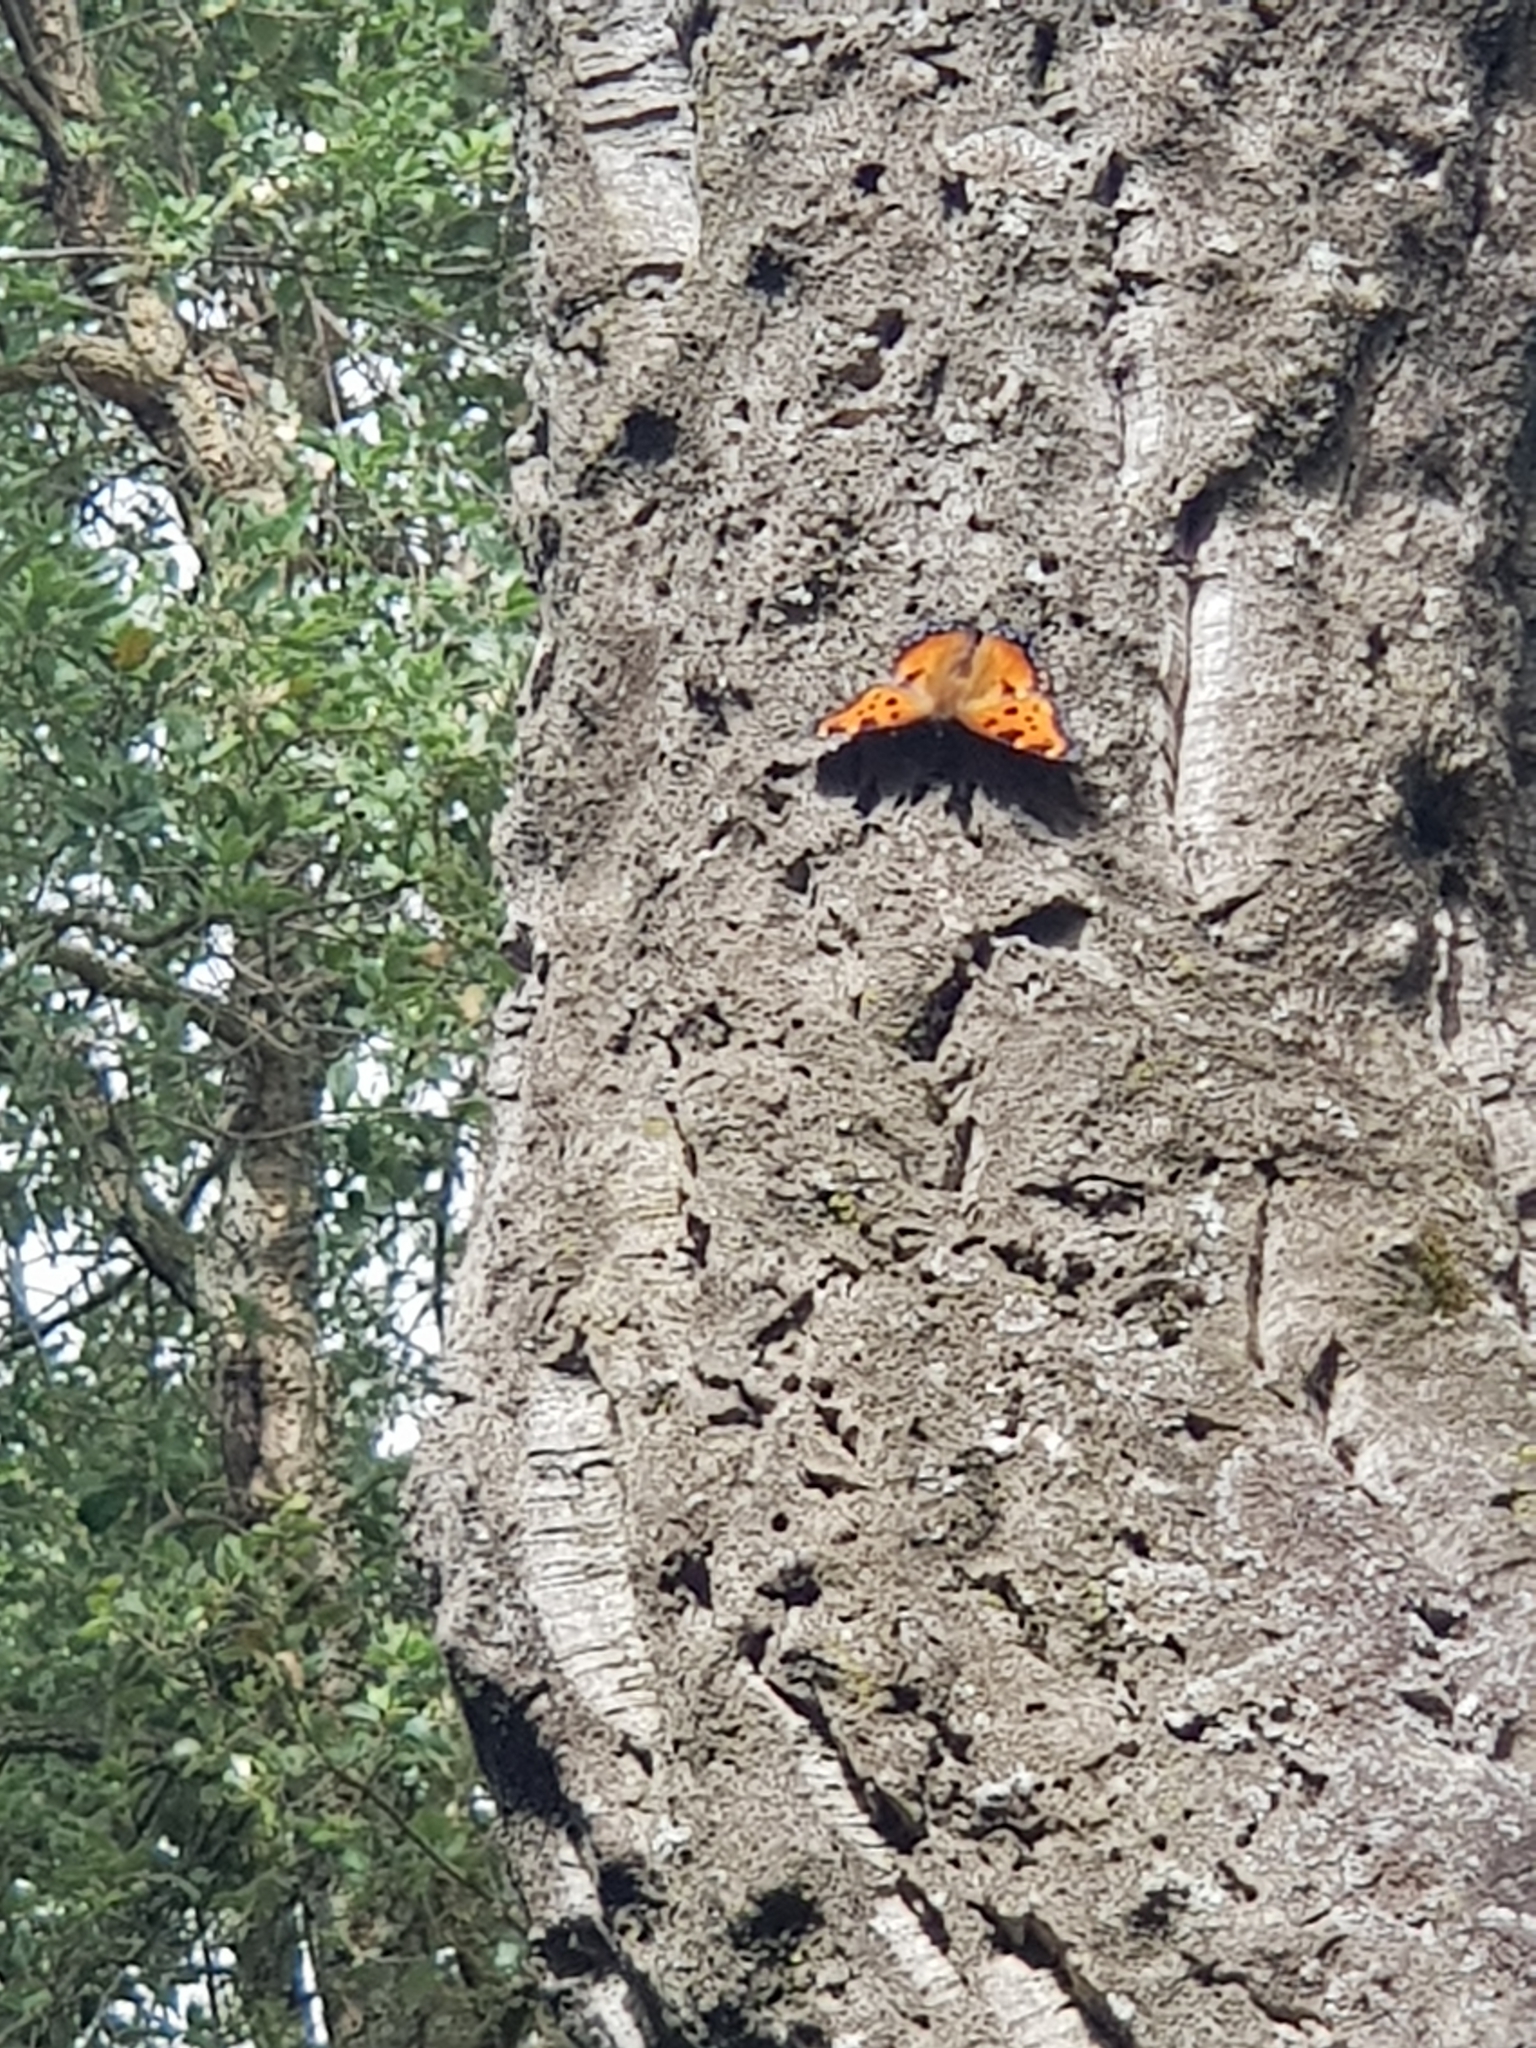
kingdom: Animalia
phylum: Arthropoda
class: Insecta
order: Lepidoptera
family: Nymphalidae
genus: Nymphalis
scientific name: Nymphalis polychloros
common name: Large tortoiseshell
